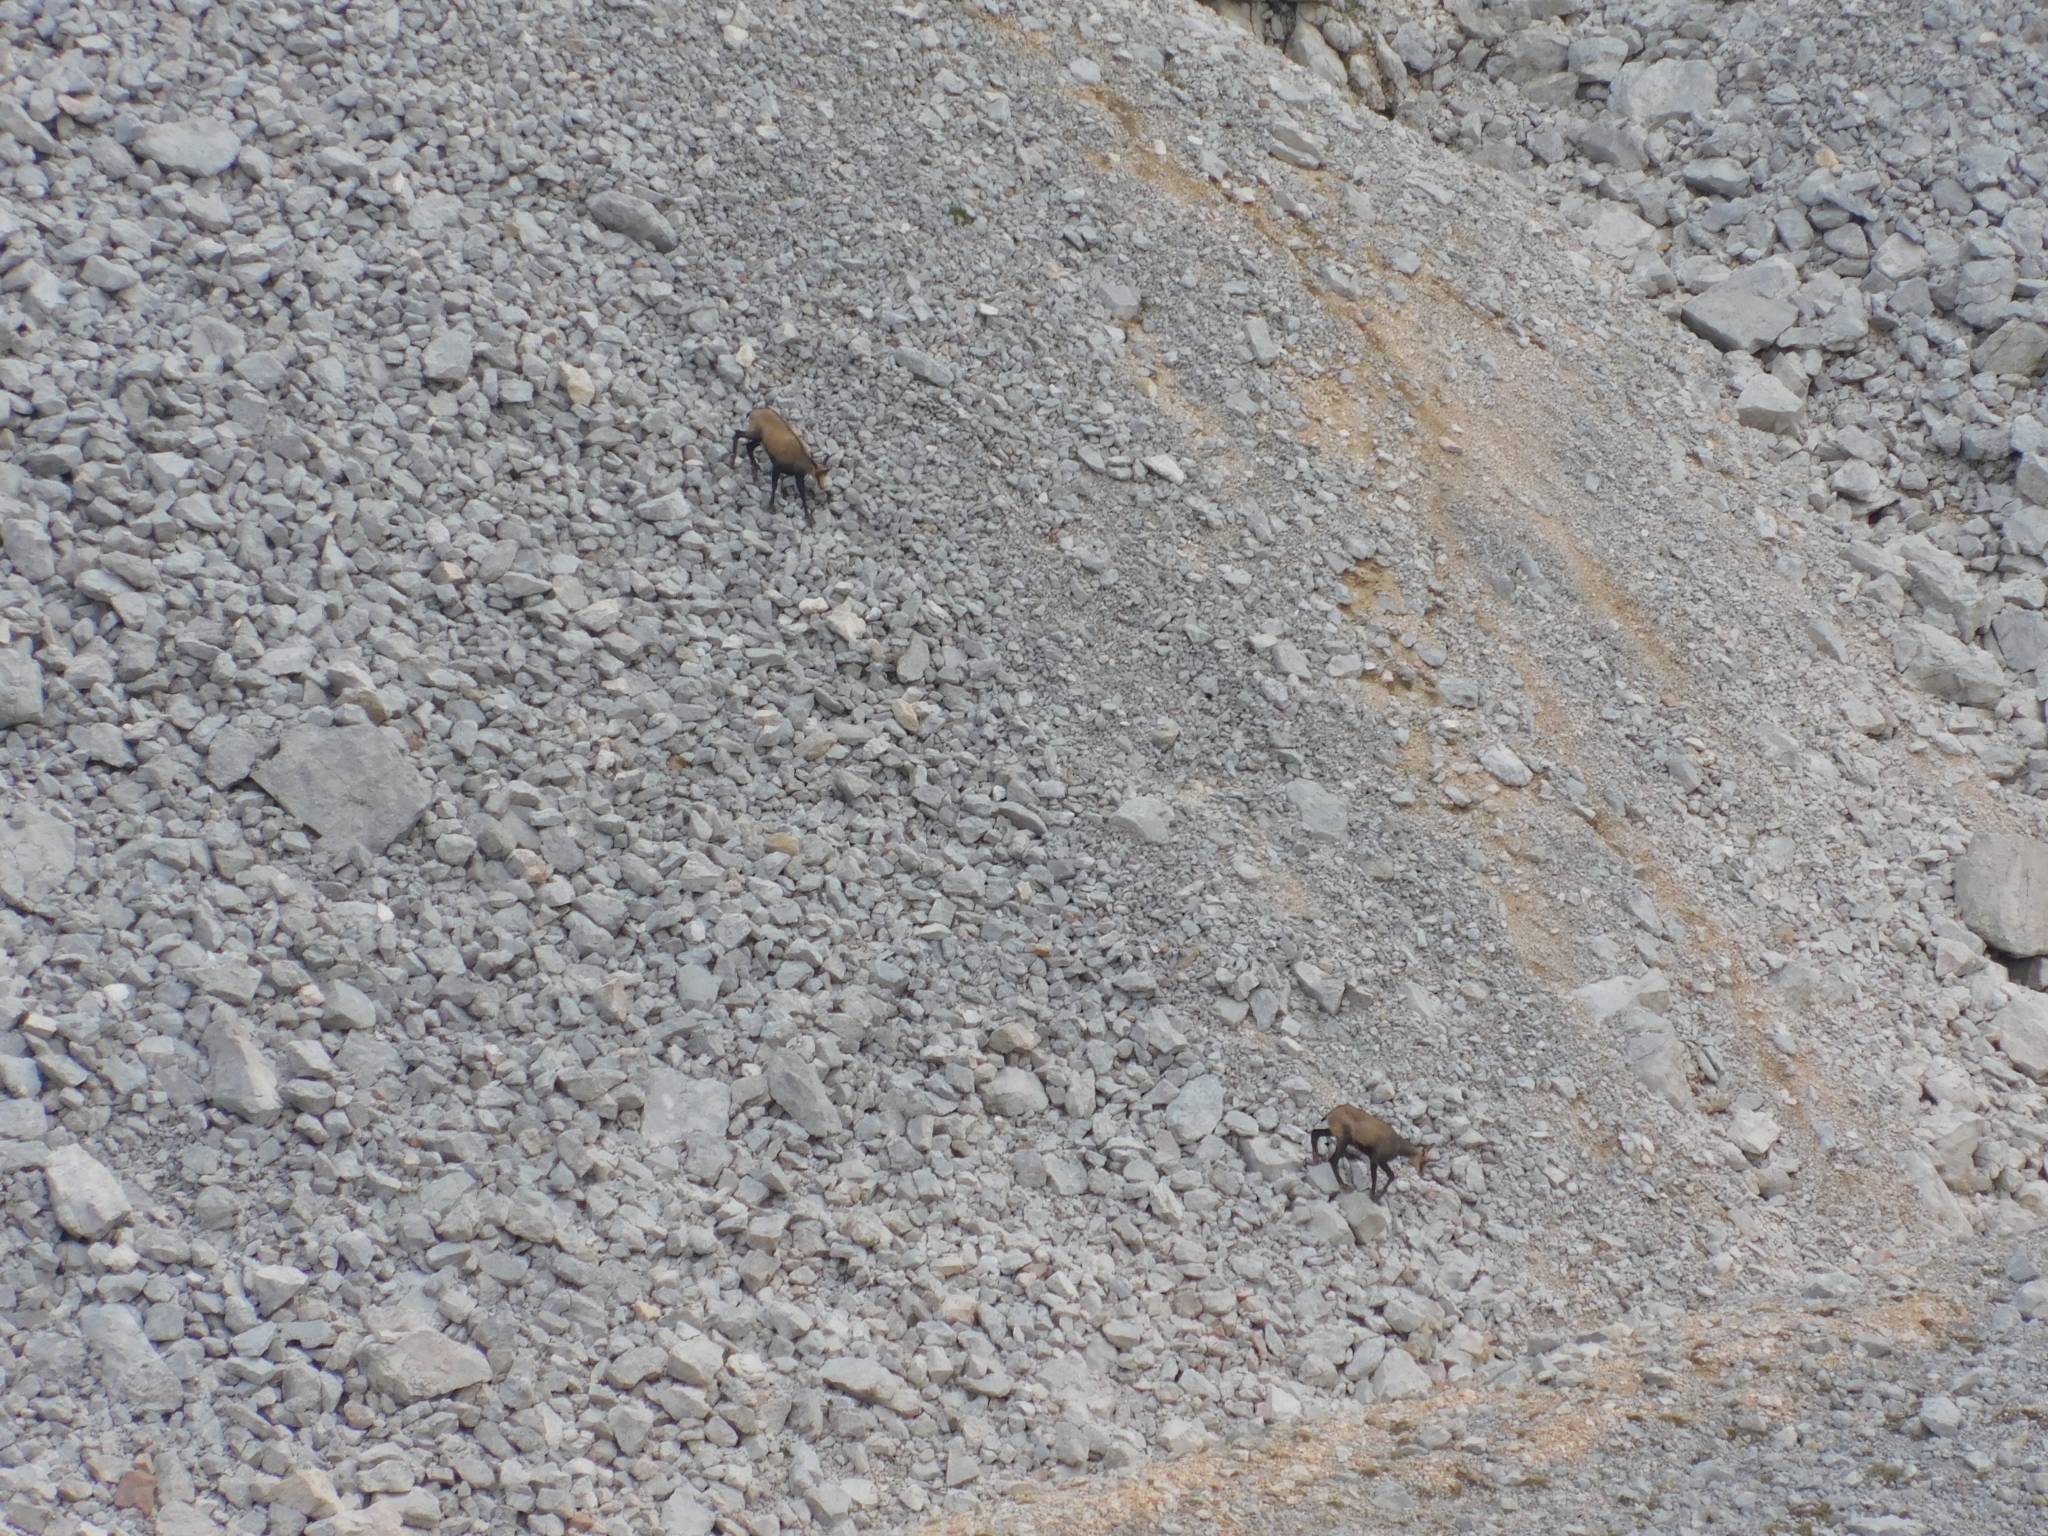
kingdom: Animalia
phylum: Chordata
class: Mammalia
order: Artiodactyla
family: Bovidae
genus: Rupicapra
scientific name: Rupicapra rupicapra
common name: Chamois
